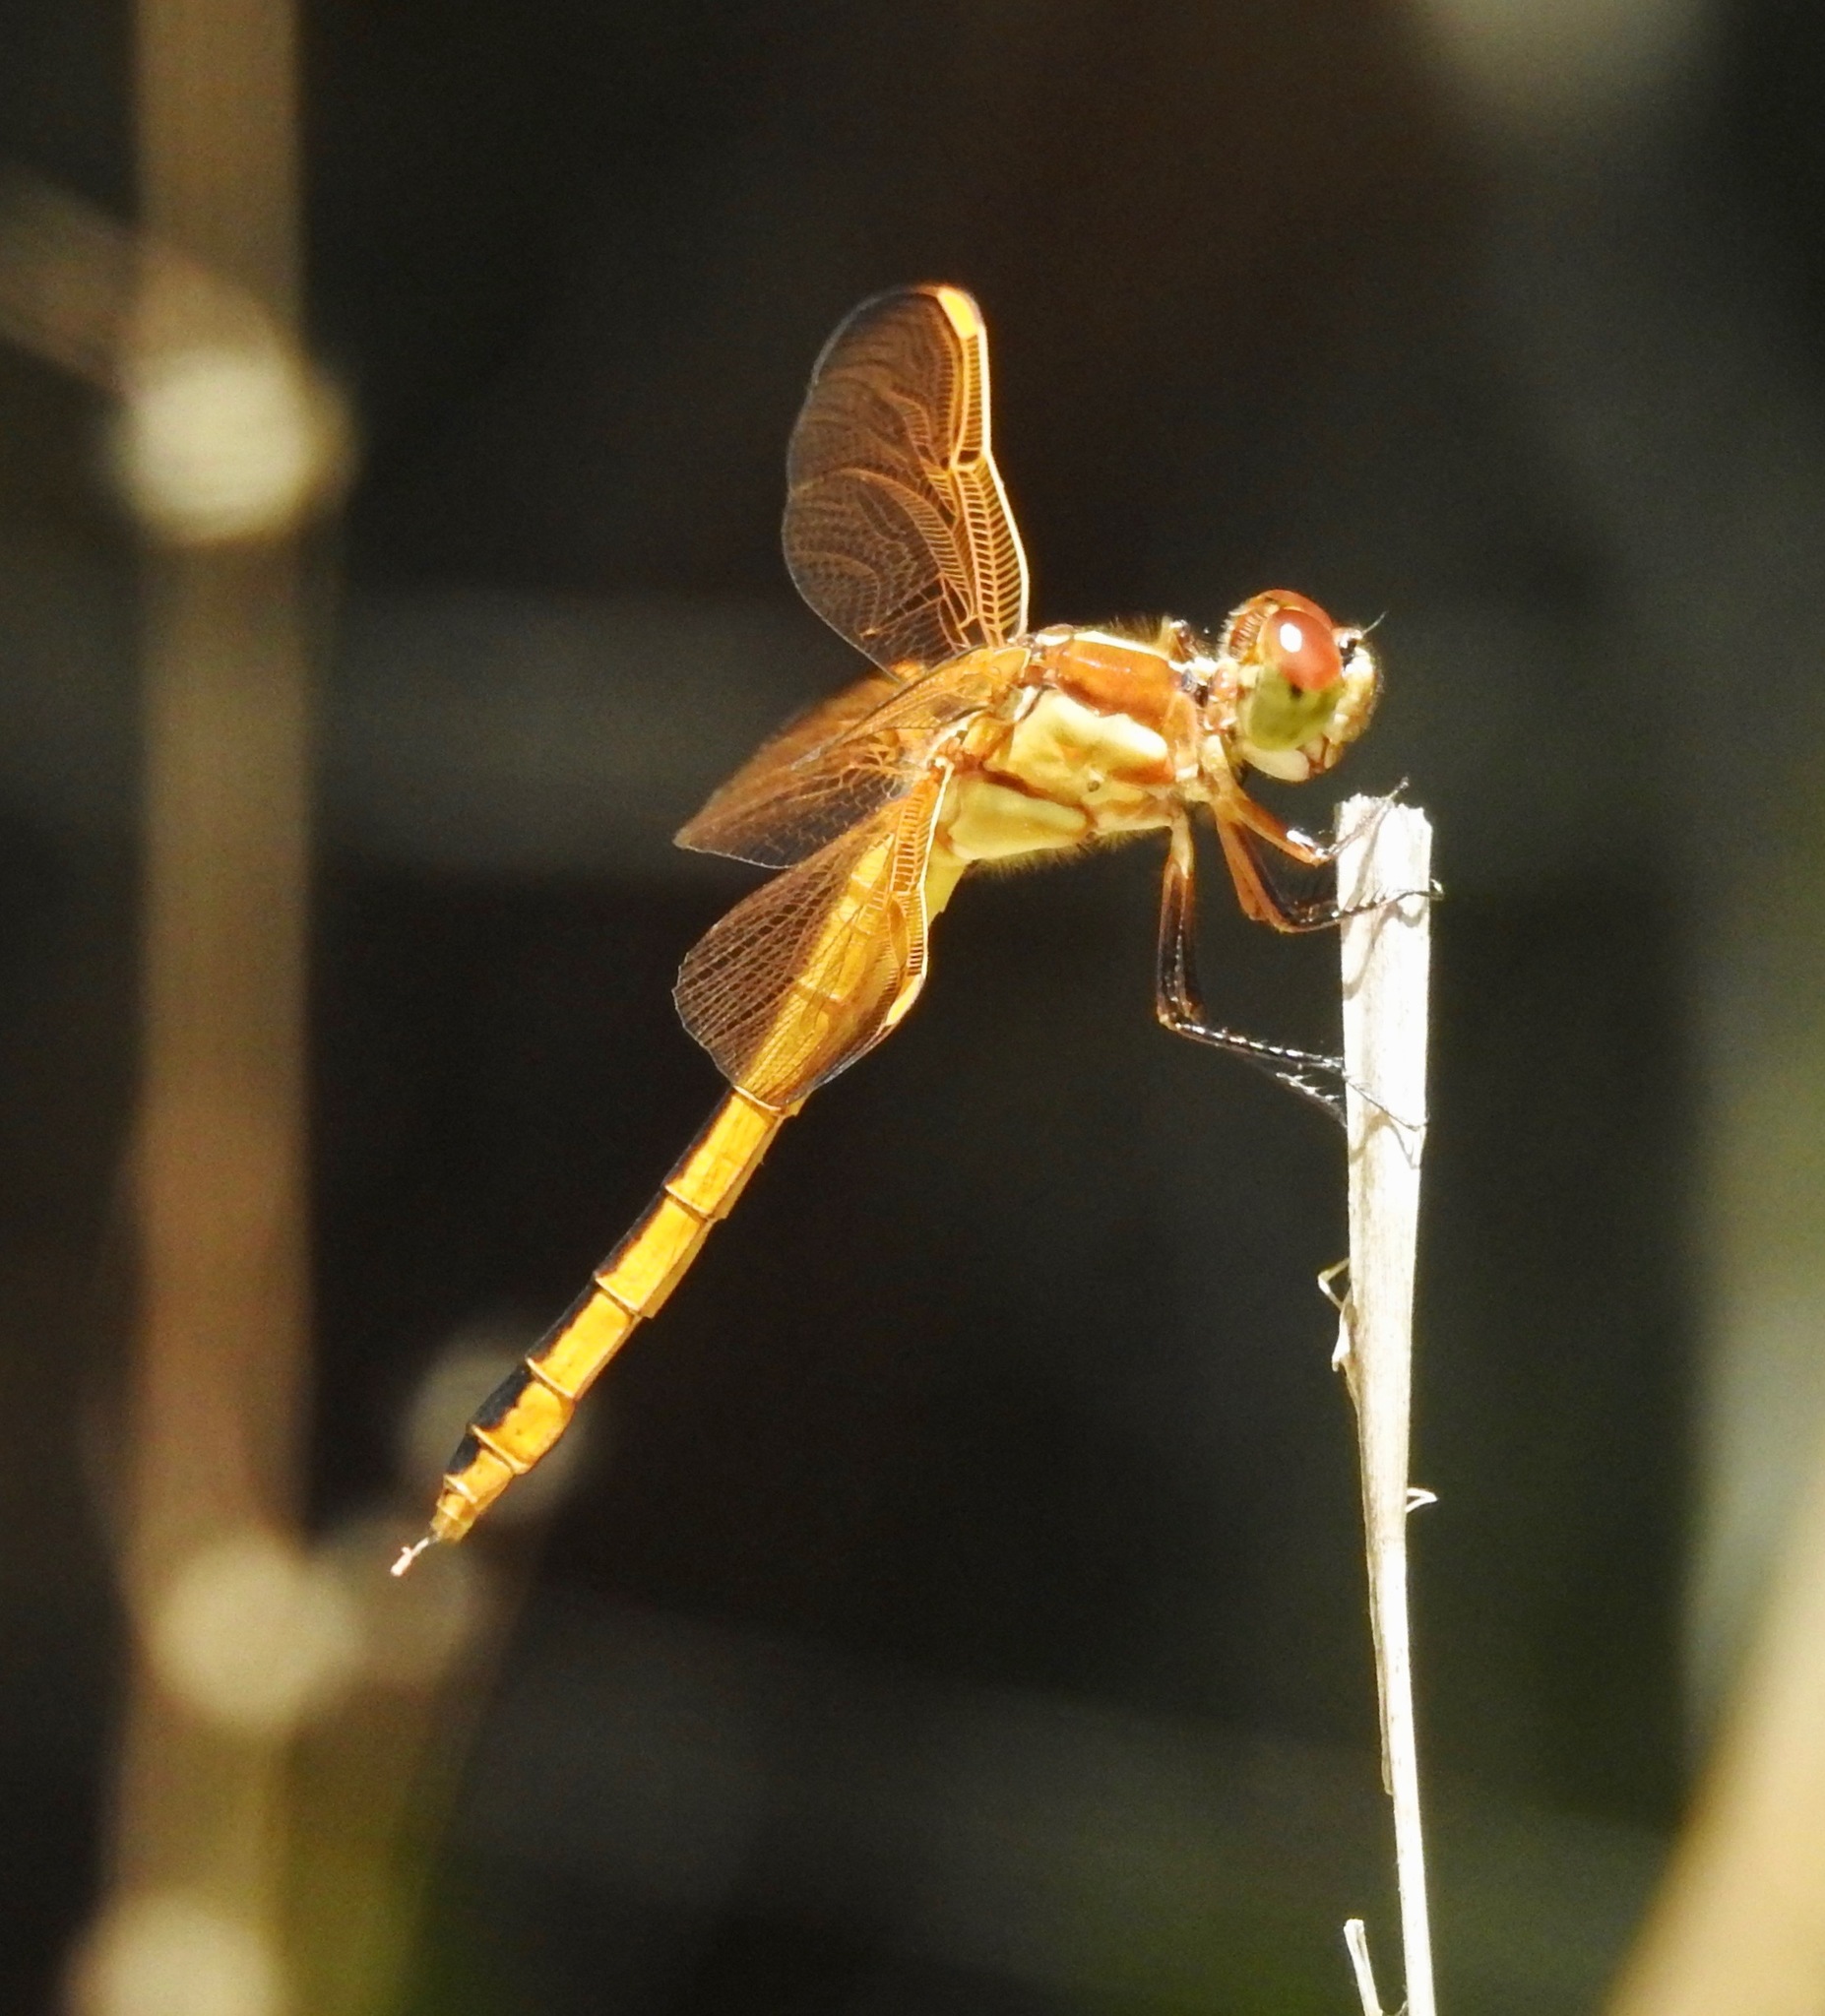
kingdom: Animalia
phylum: Arthropoda
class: Insecta
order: Odonata
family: Libellulidae
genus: Libellula
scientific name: Libellula auripennis
